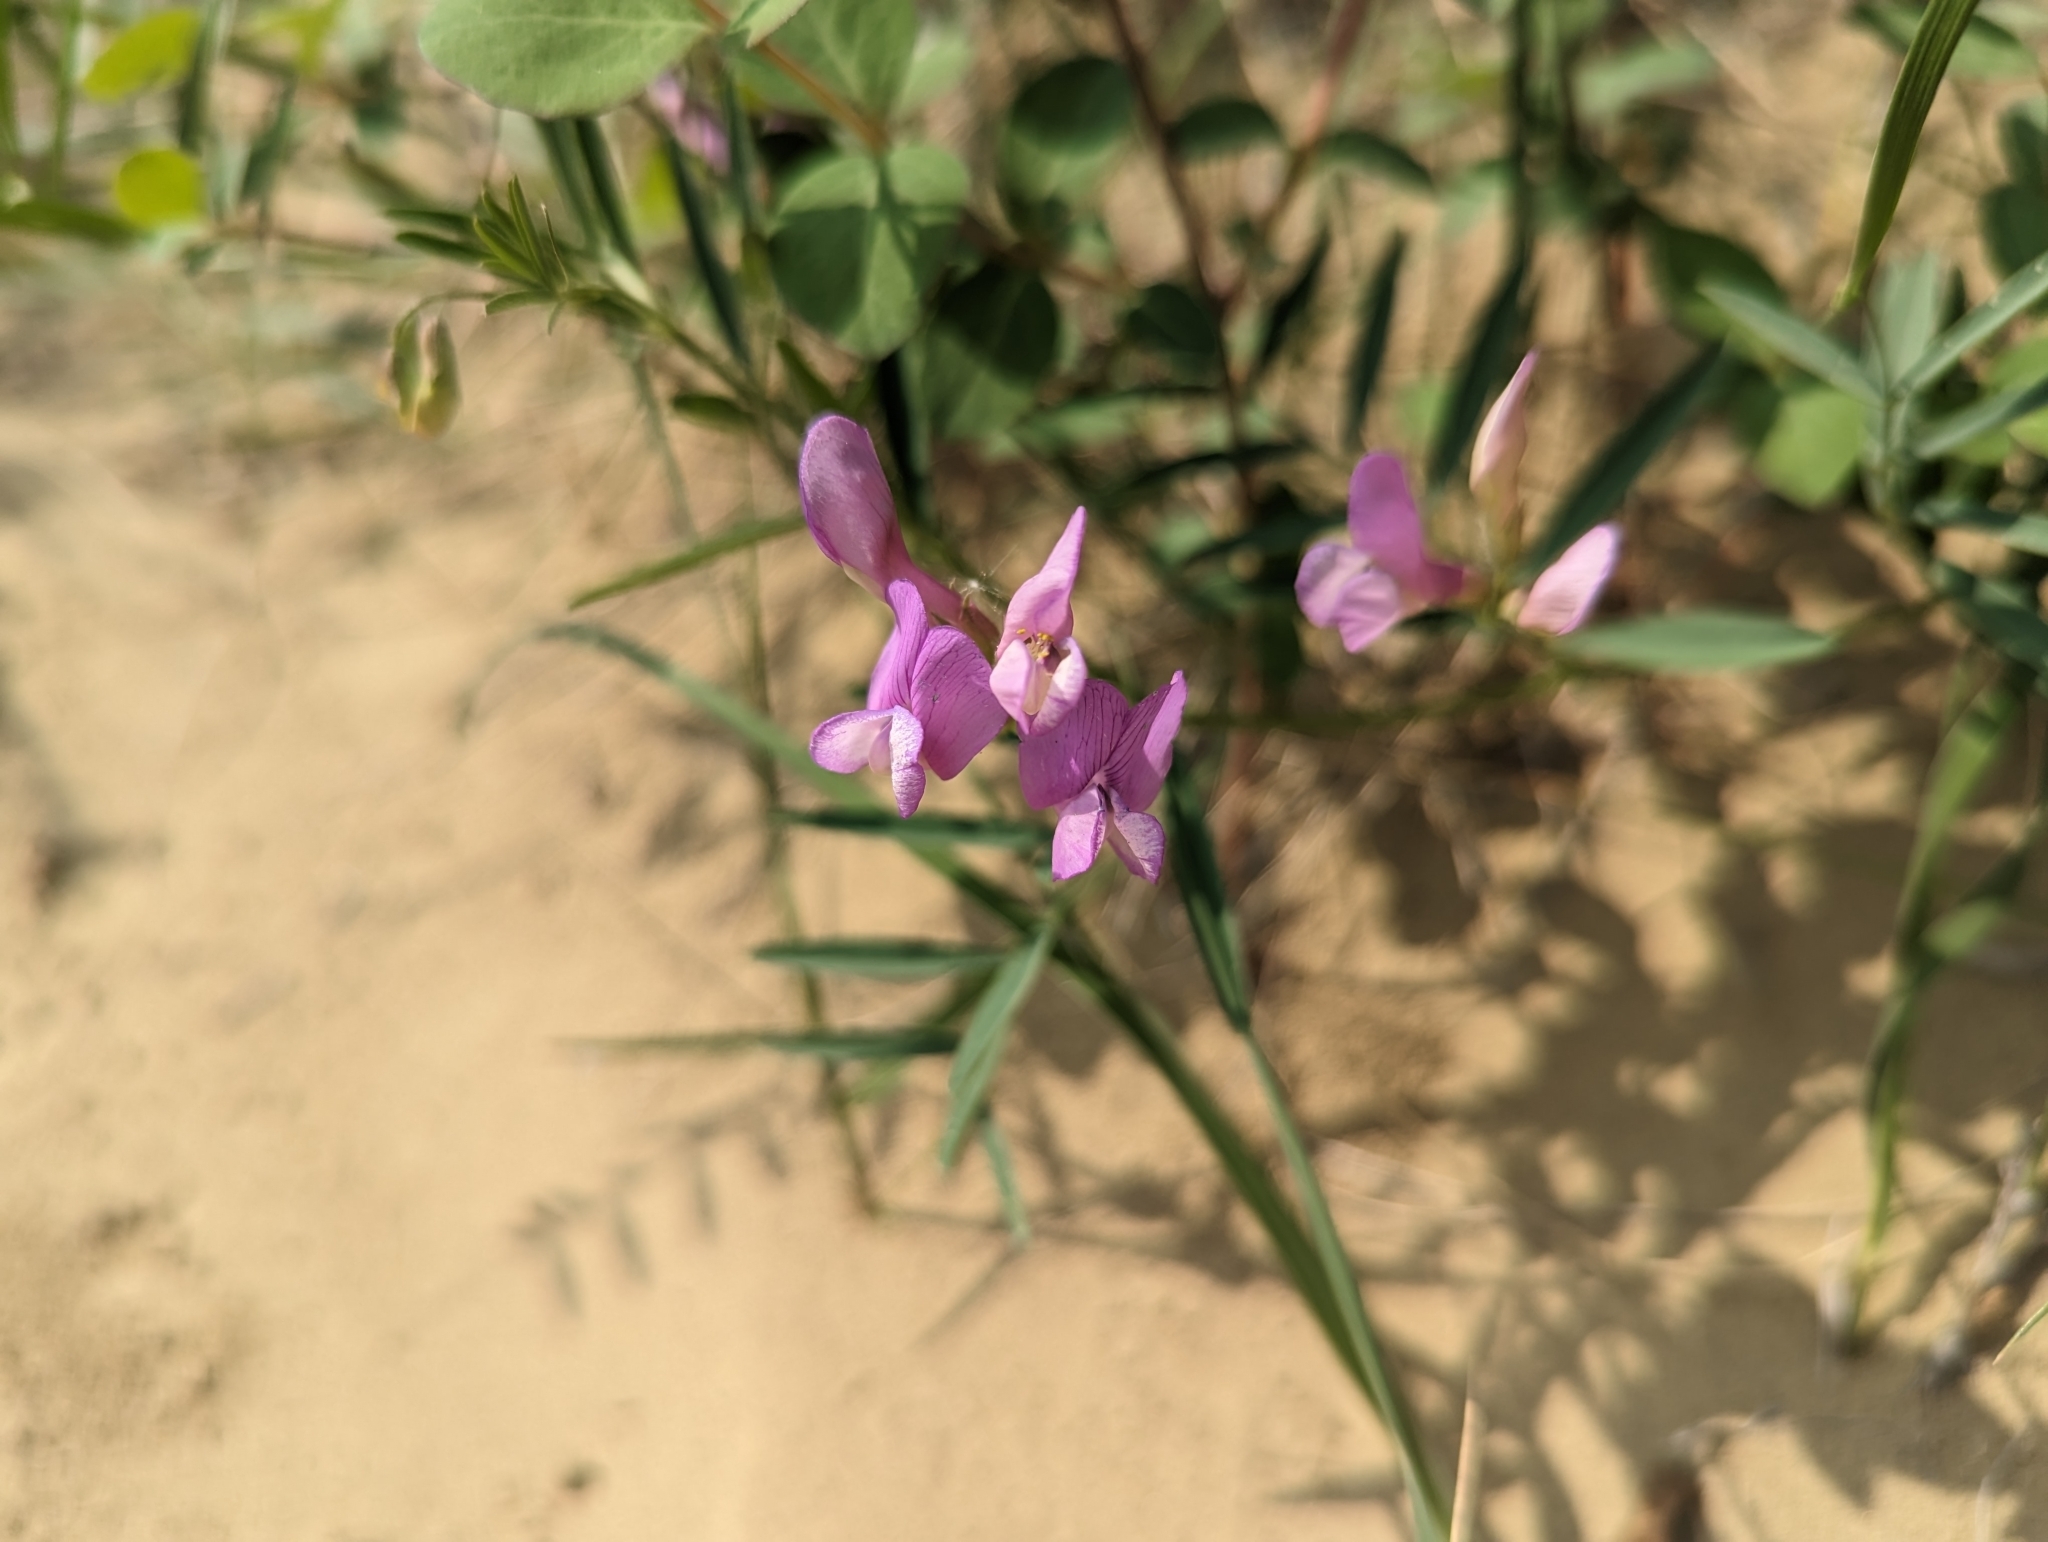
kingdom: Plantae
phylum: Tracheophyta
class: Magnoliopsida
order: Fabales
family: Fabaceae
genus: Vicia
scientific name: Vicia americana
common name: American vetch
